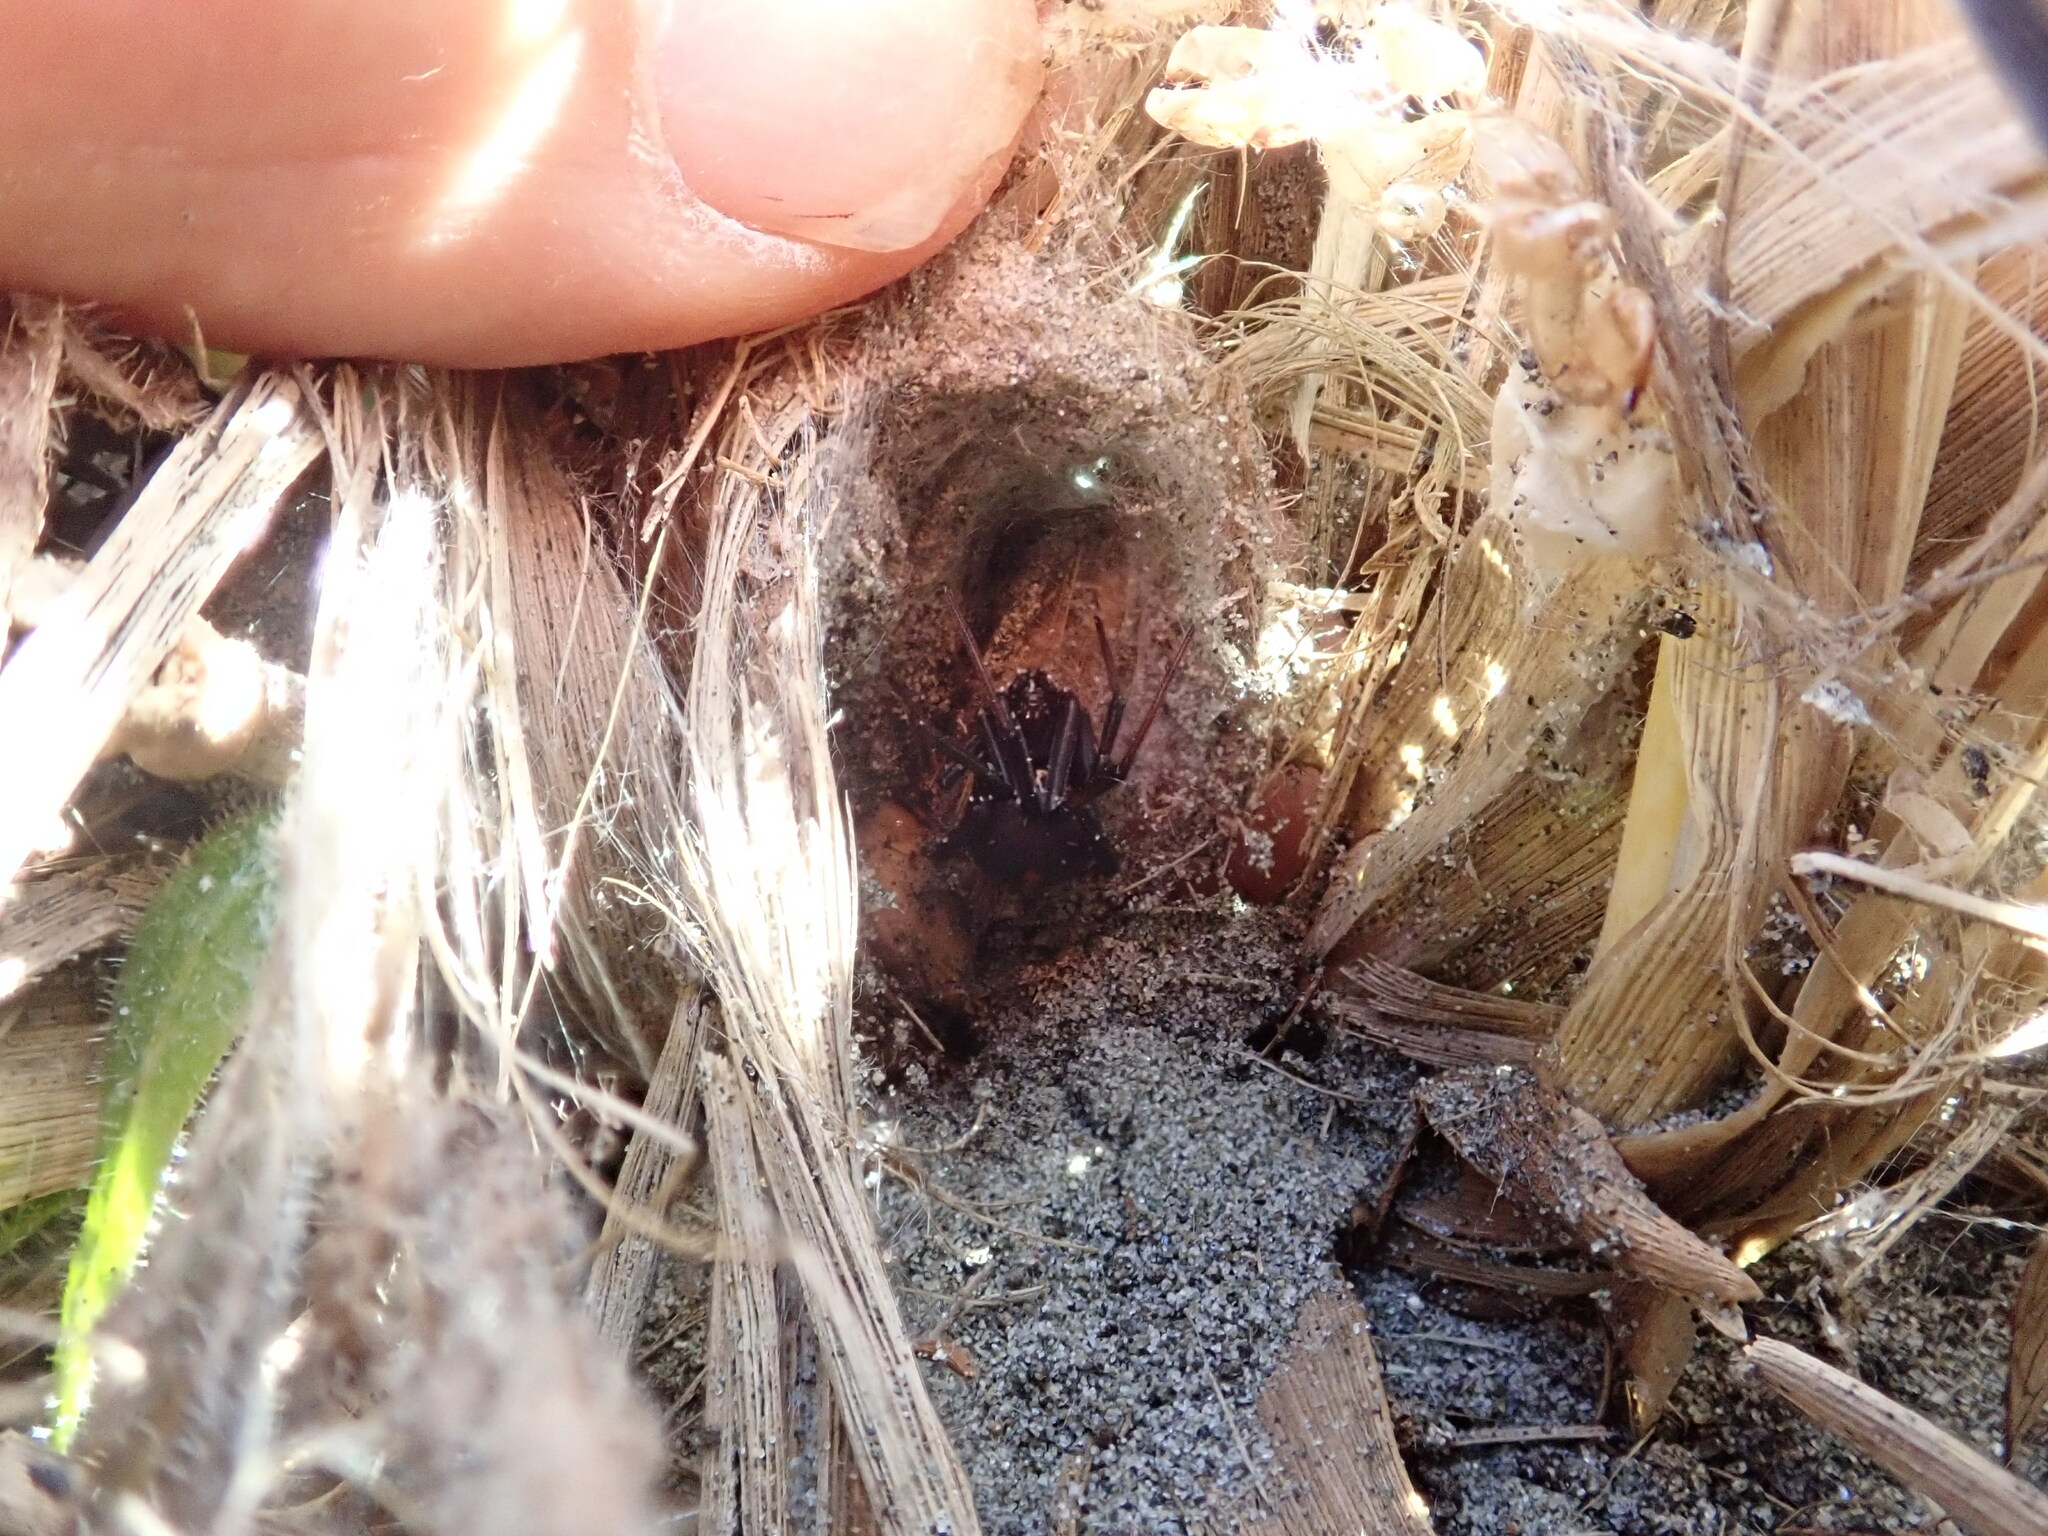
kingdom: Animalia
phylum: Arthropoda
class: Arachnida
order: Araneae
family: Theridiidae
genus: Latrodectus
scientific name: Latrodectus katipo
